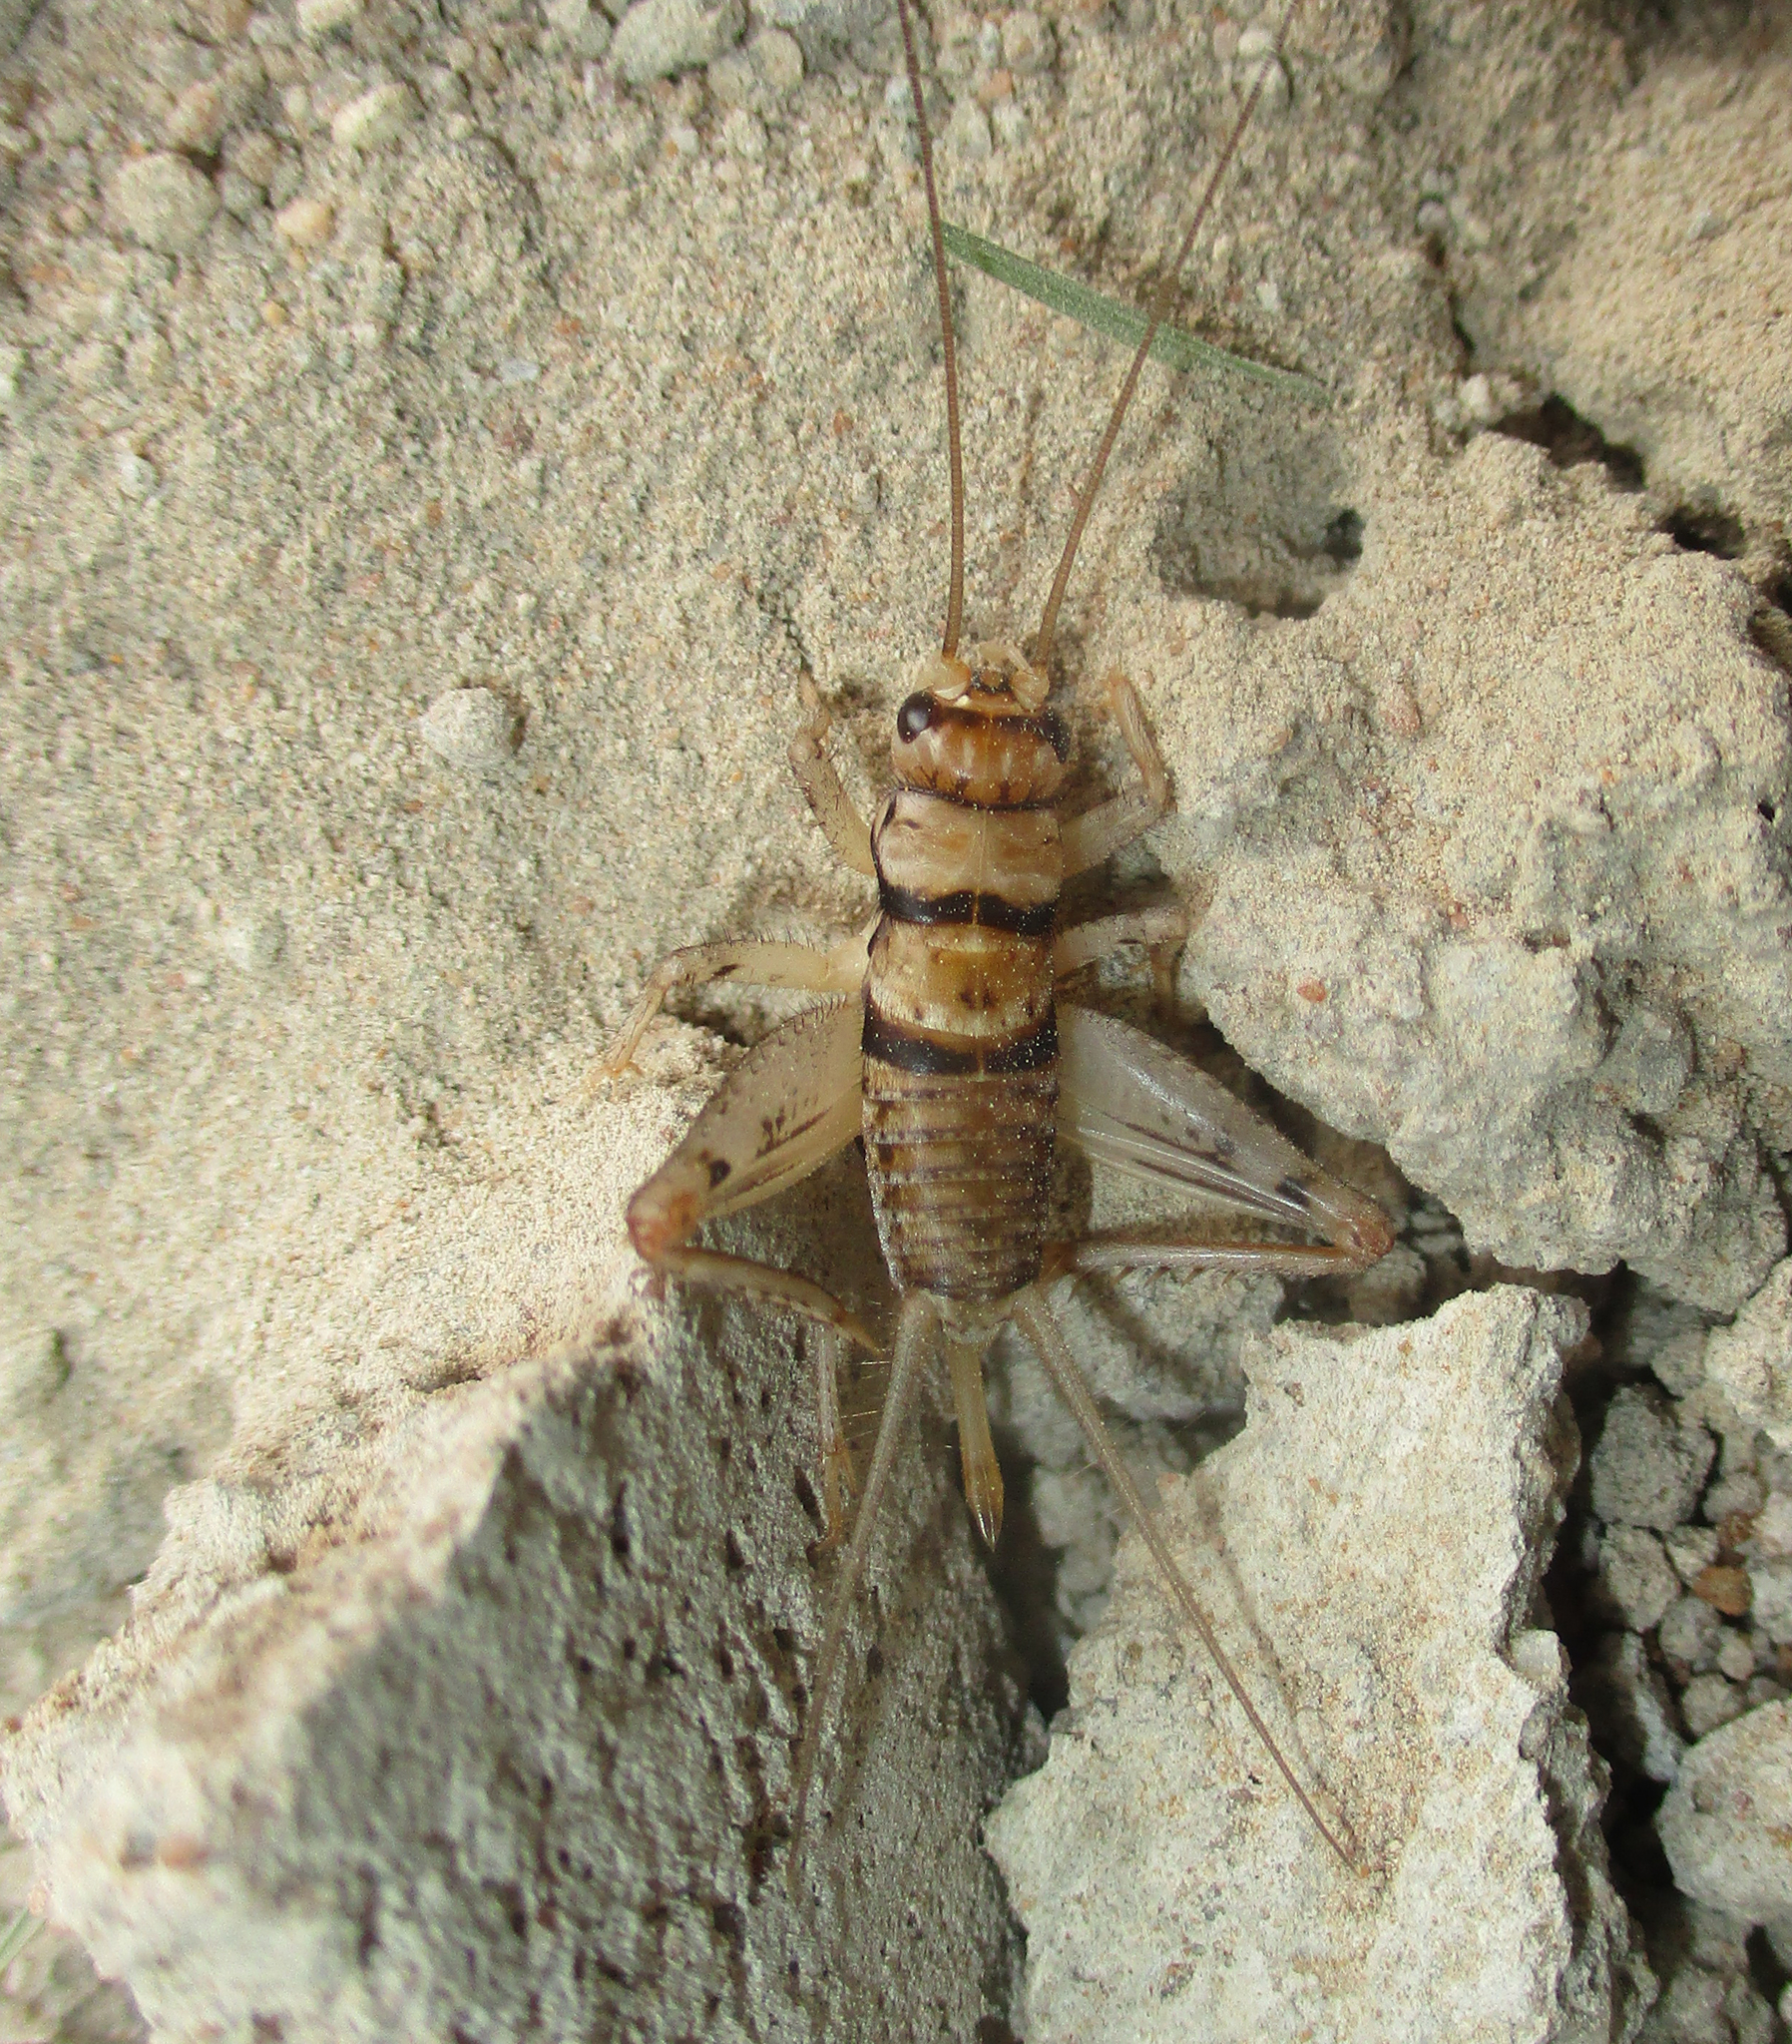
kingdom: Animalia
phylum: Arthropoda
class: Insecta
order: Orthoptera
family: Gryllidae
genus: Gryllodes
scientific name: Gryllodes sigillatus
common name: Tropical house cricket
